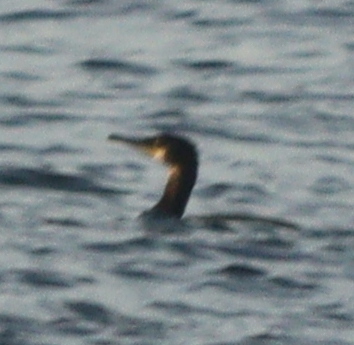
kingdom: Animalia
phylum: Chordata
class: Aves
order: Suliformes
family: Phalacrocoracidae
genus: Phalacrocorax
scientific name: Phalacrocorax carbo
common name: Great cormorant
